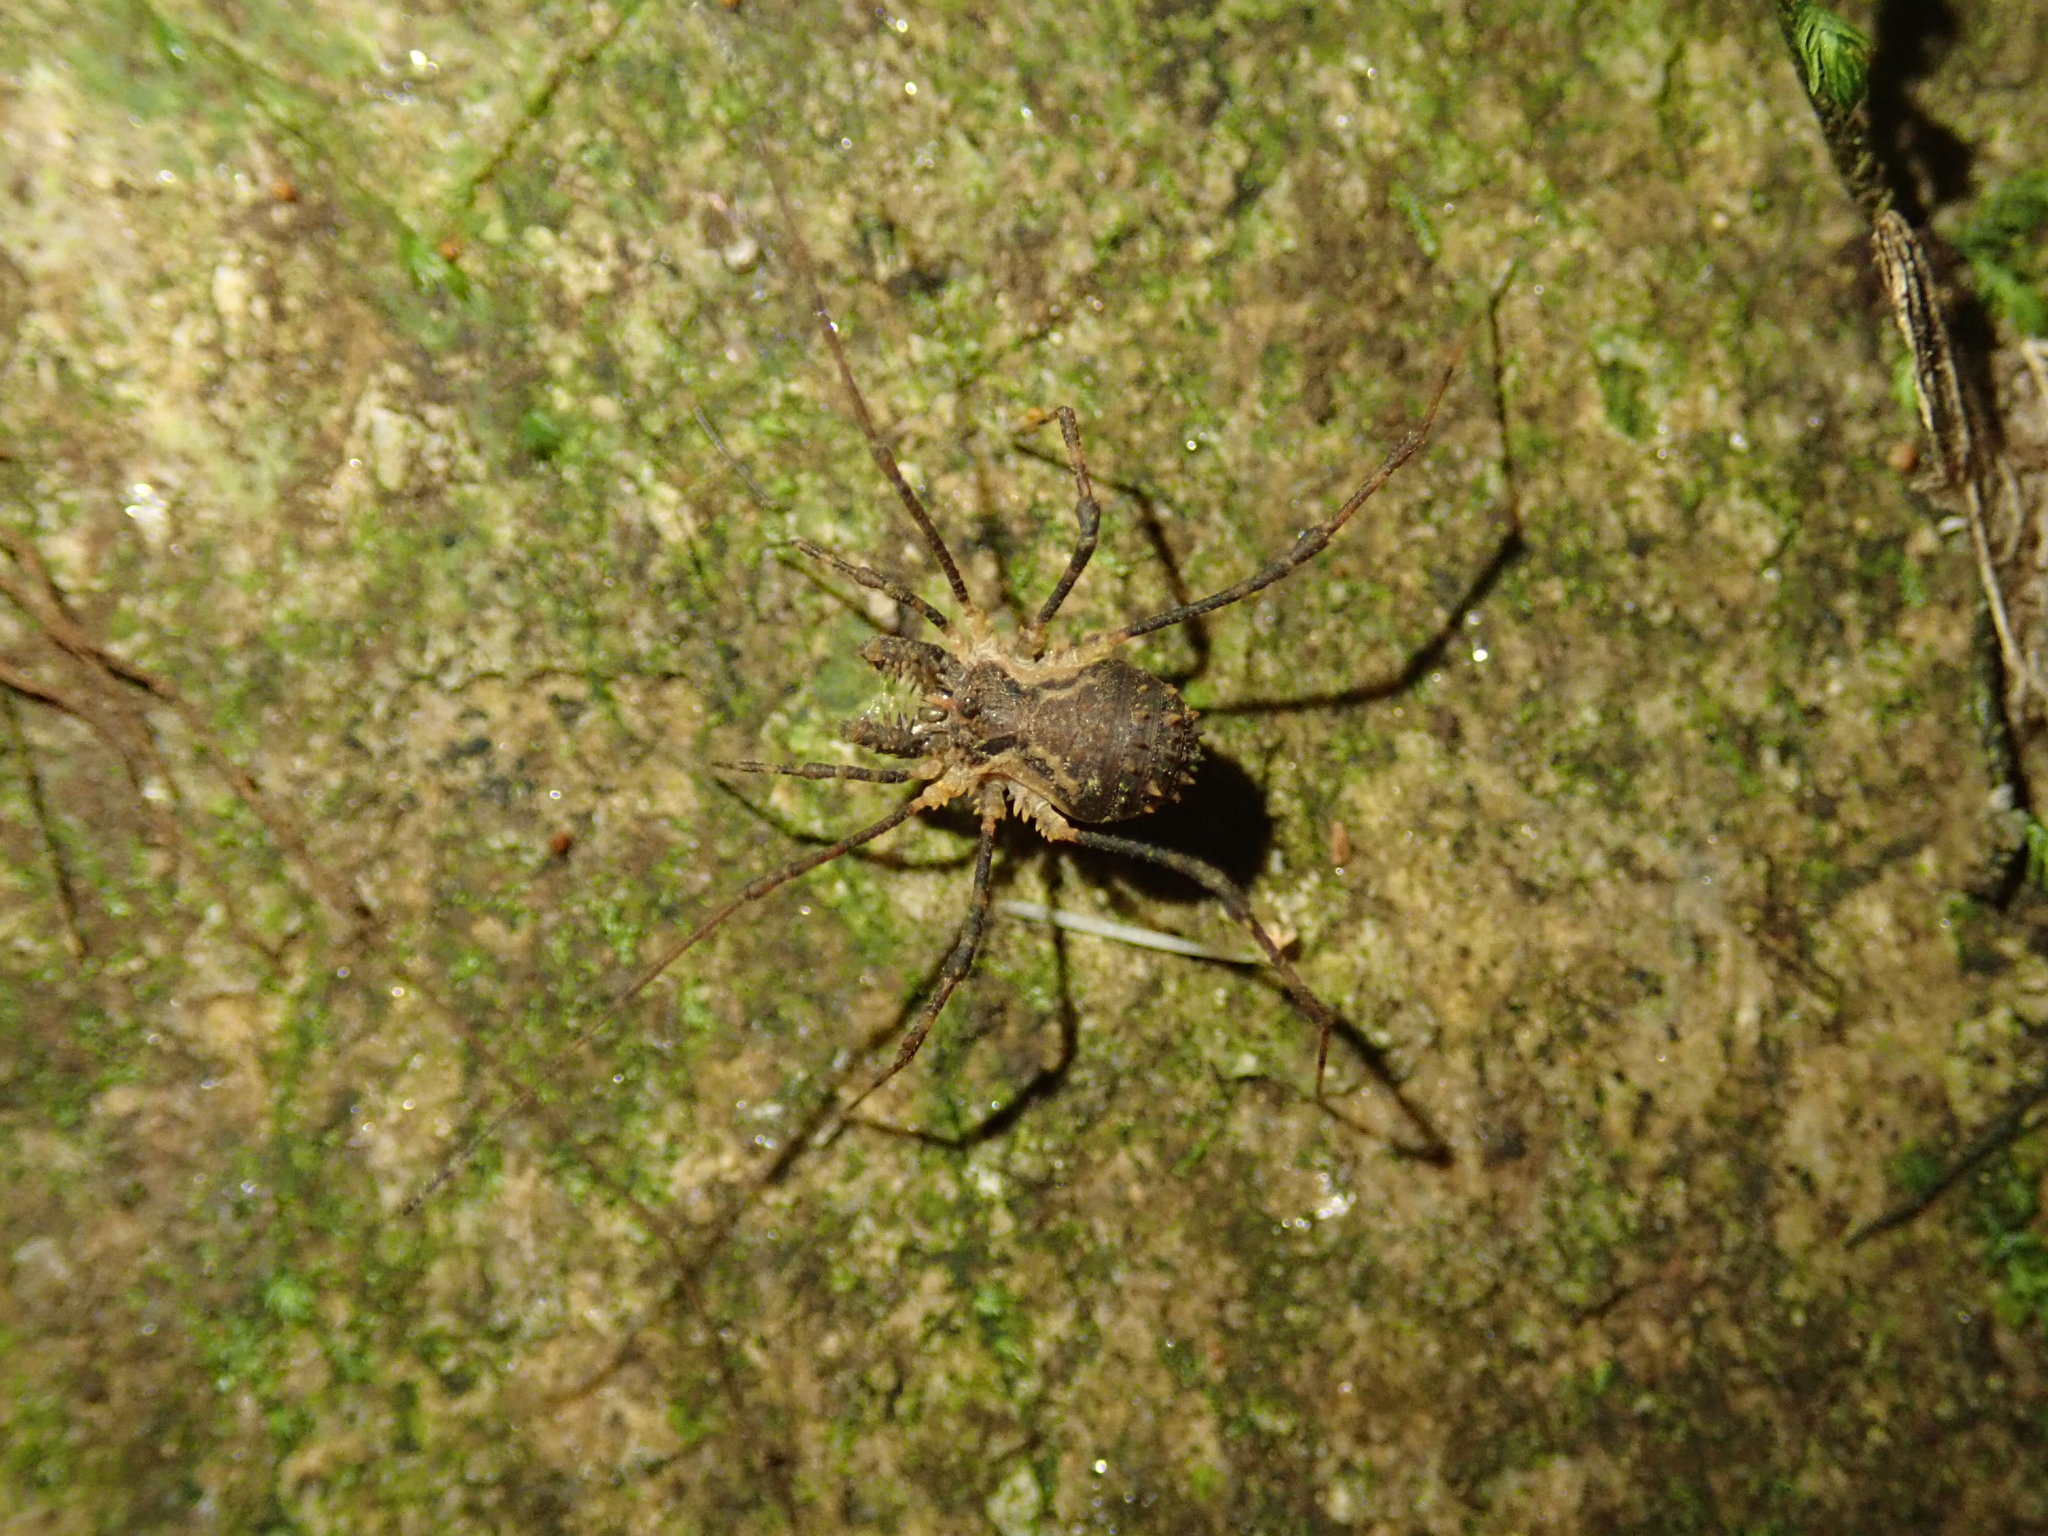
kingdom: Animalia
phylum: Arthropoda
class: Arachnida
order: Opiliones
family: Triaenonychidae
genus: Algidia
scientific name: Algidia chiltoni
